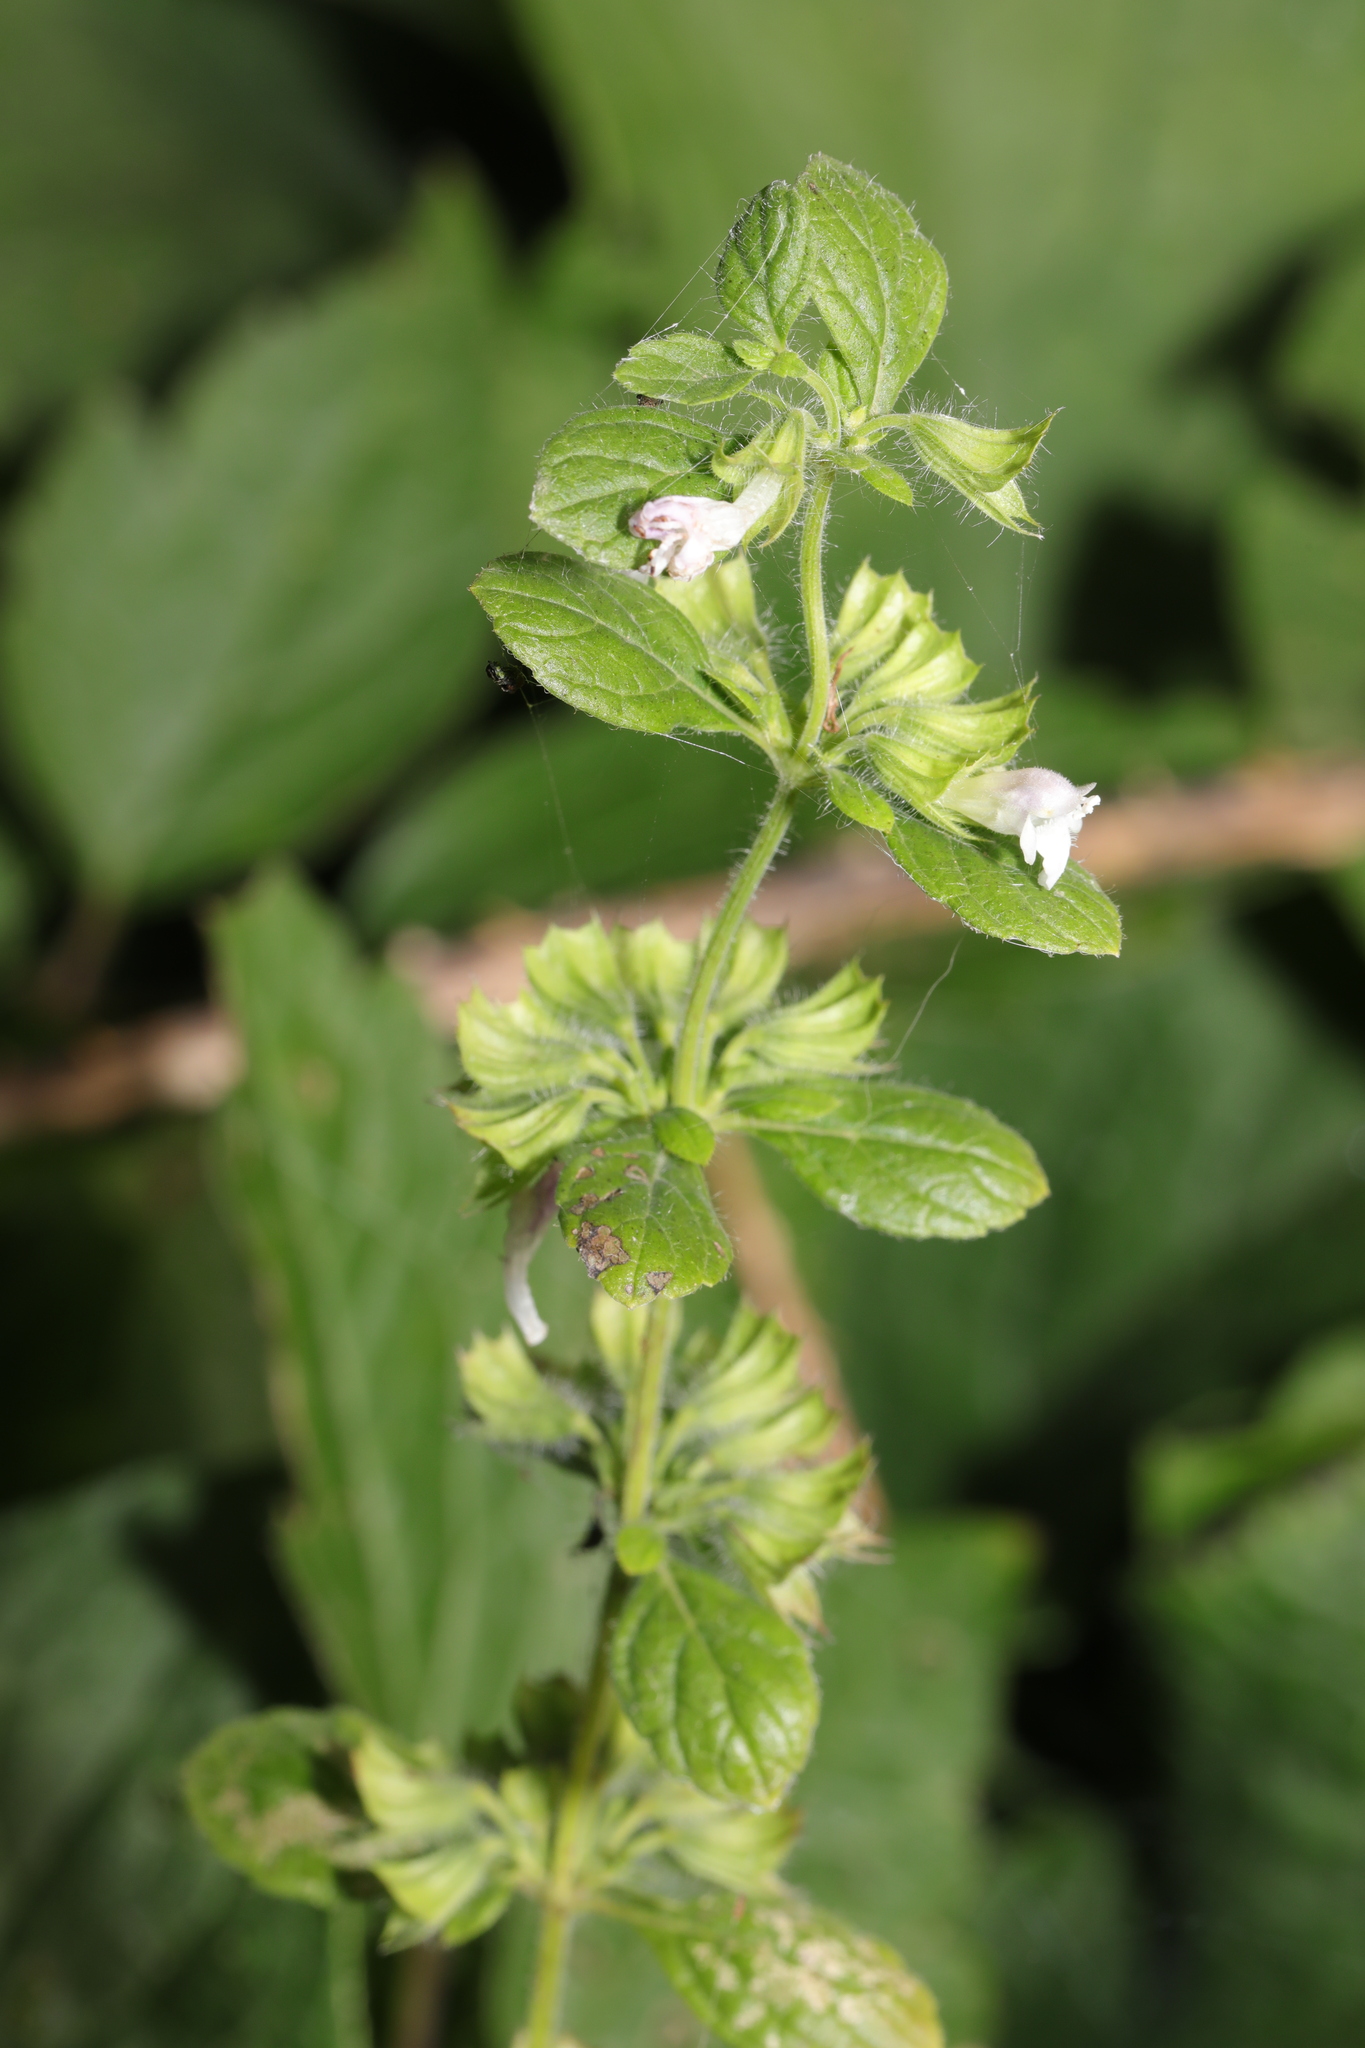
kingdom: Plantae
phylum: Tracheophyta
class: Magnoliopsida
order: Lamiales
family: Lamiaceae
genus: Melissa
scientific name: Melissa officinalis
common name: Balm
